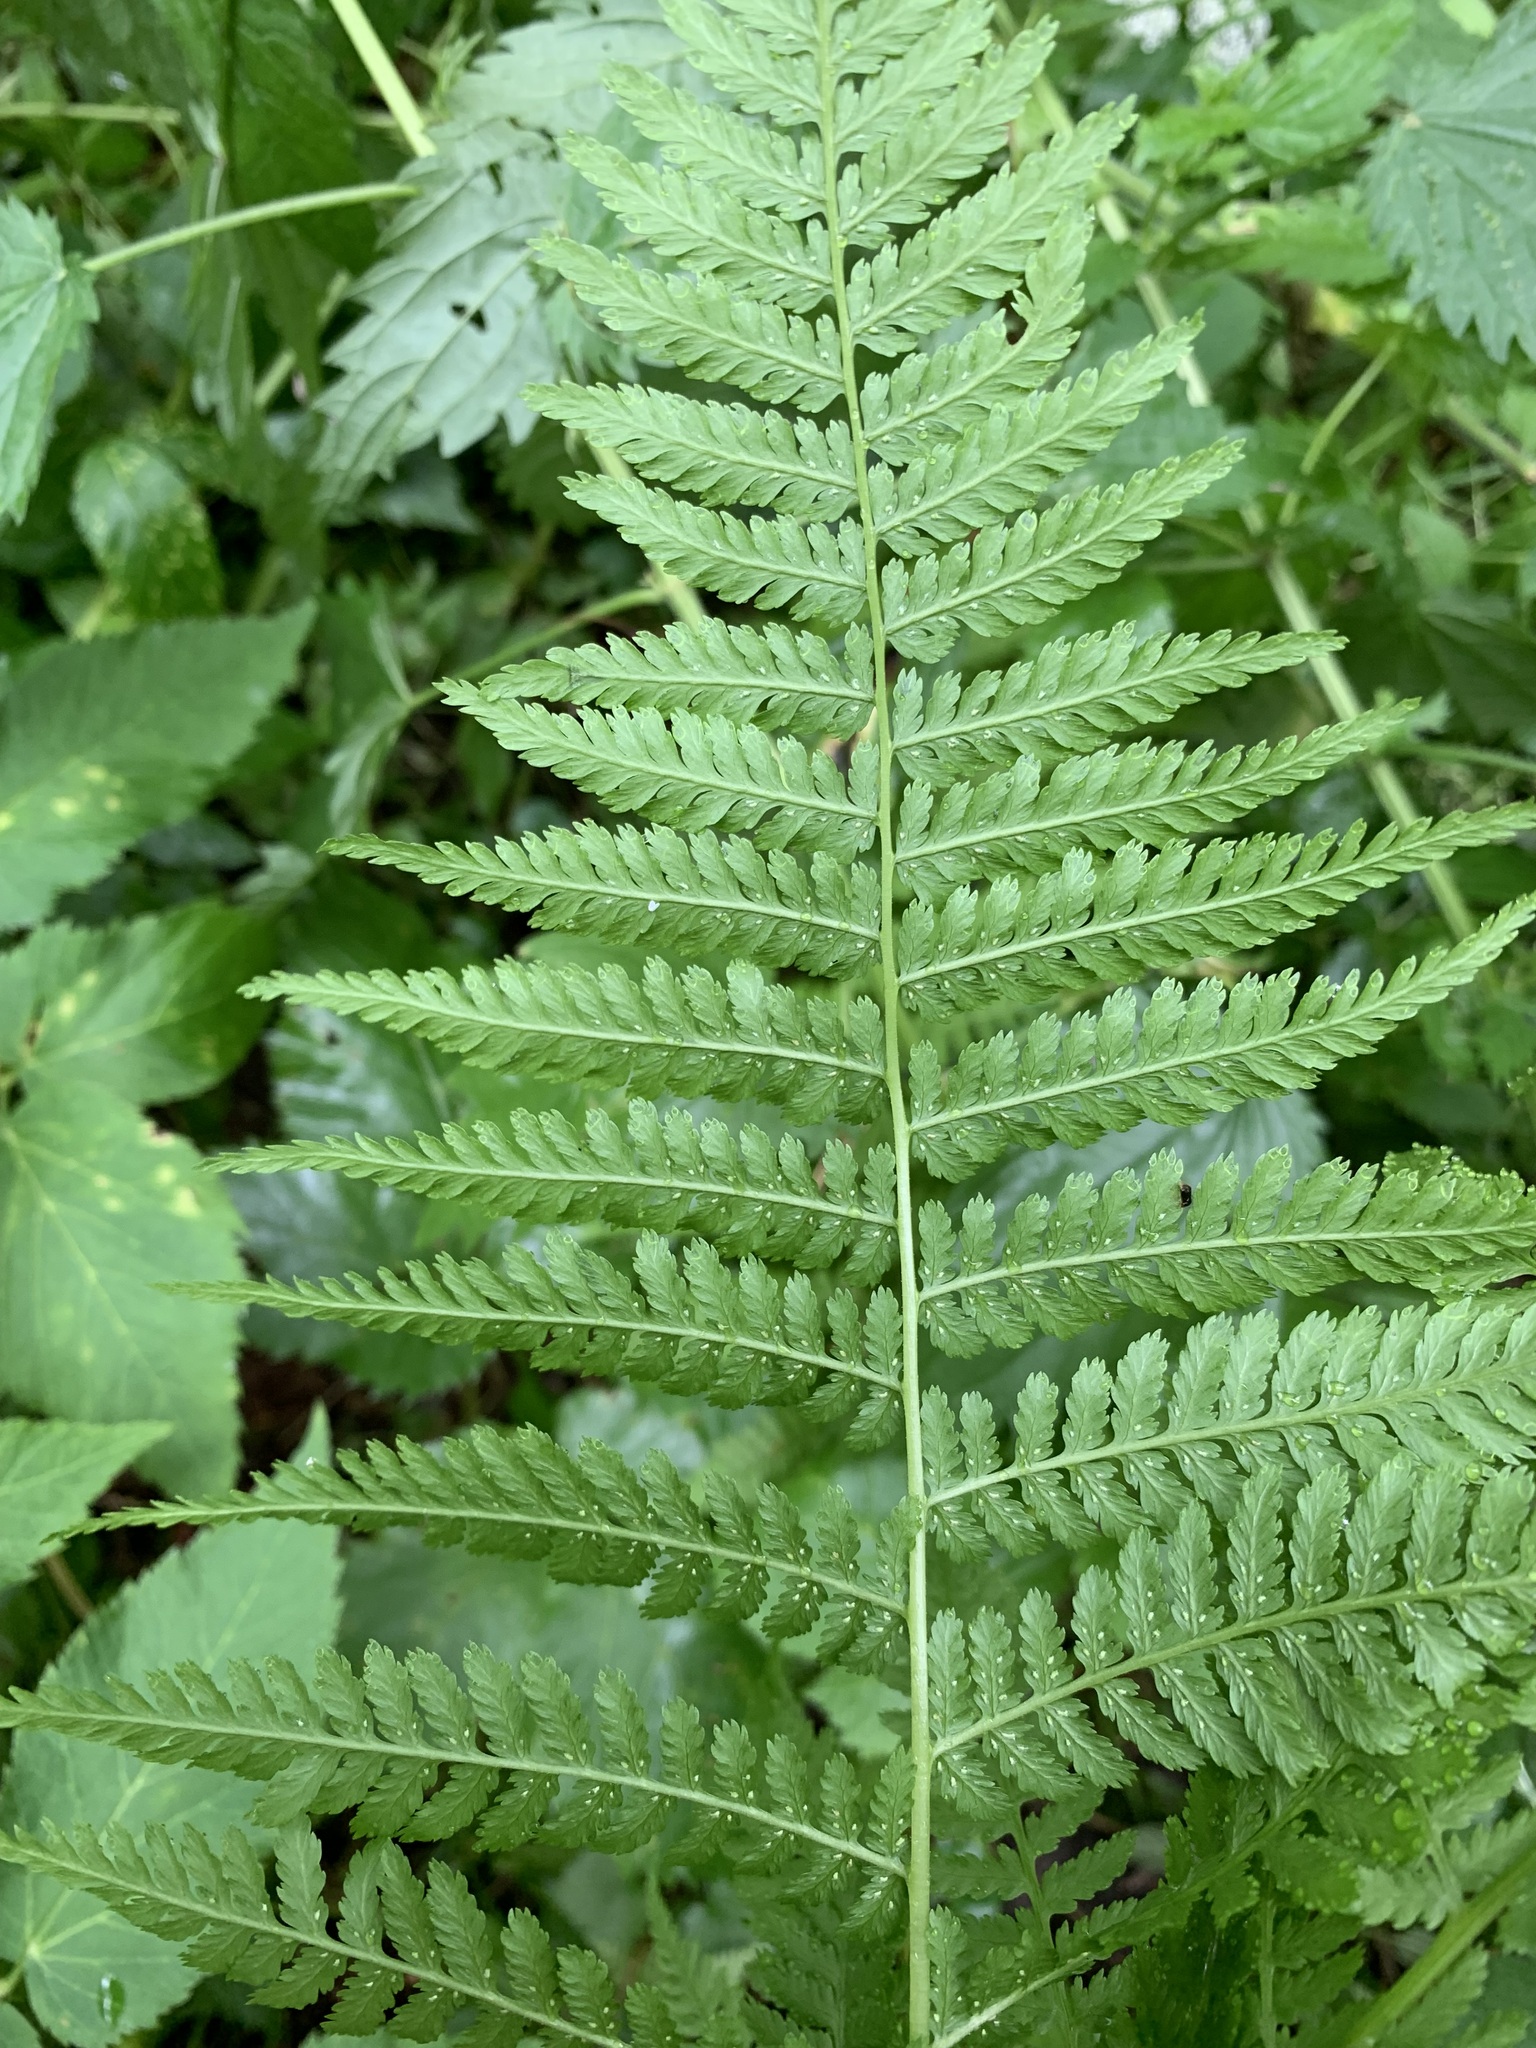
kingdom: Plantae
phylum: Tracheophyta
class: Polypodiopsida
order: Polypodiales
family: Athyriaceae
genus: Athyrium
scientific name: Athyrium filix-femina
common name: Lady fern
